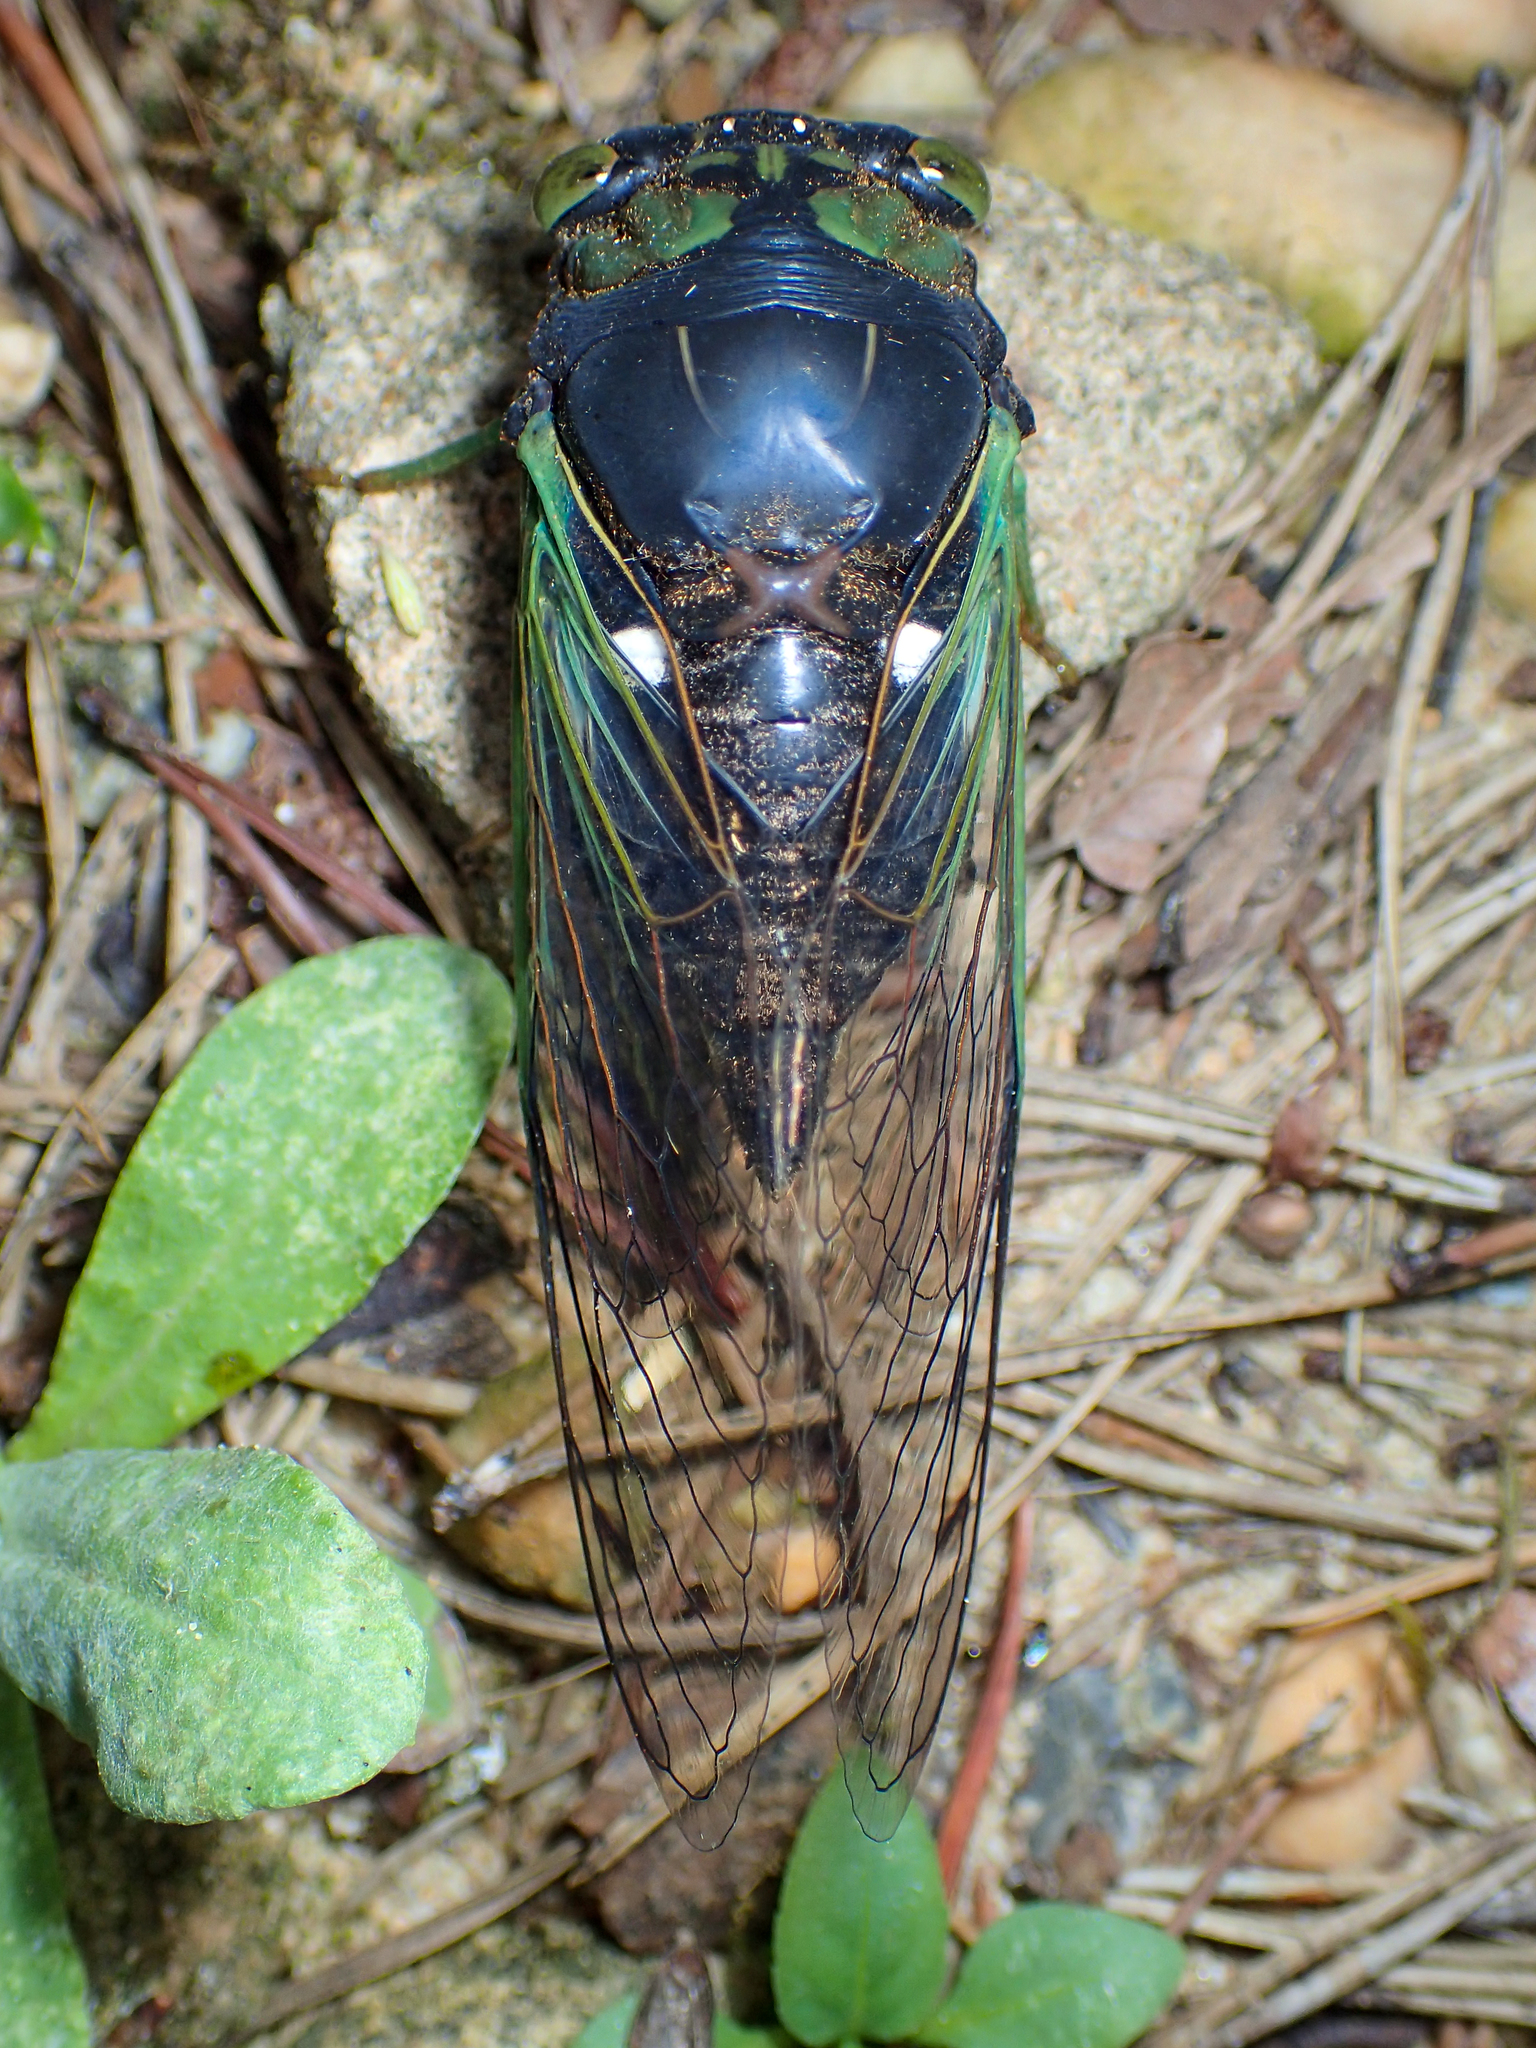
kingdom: Animalia
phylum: Arthropoda
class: Insecta
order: Hemiptera
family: Cicadidae
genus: Neotibicen
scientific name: Neotibicen tibicen
